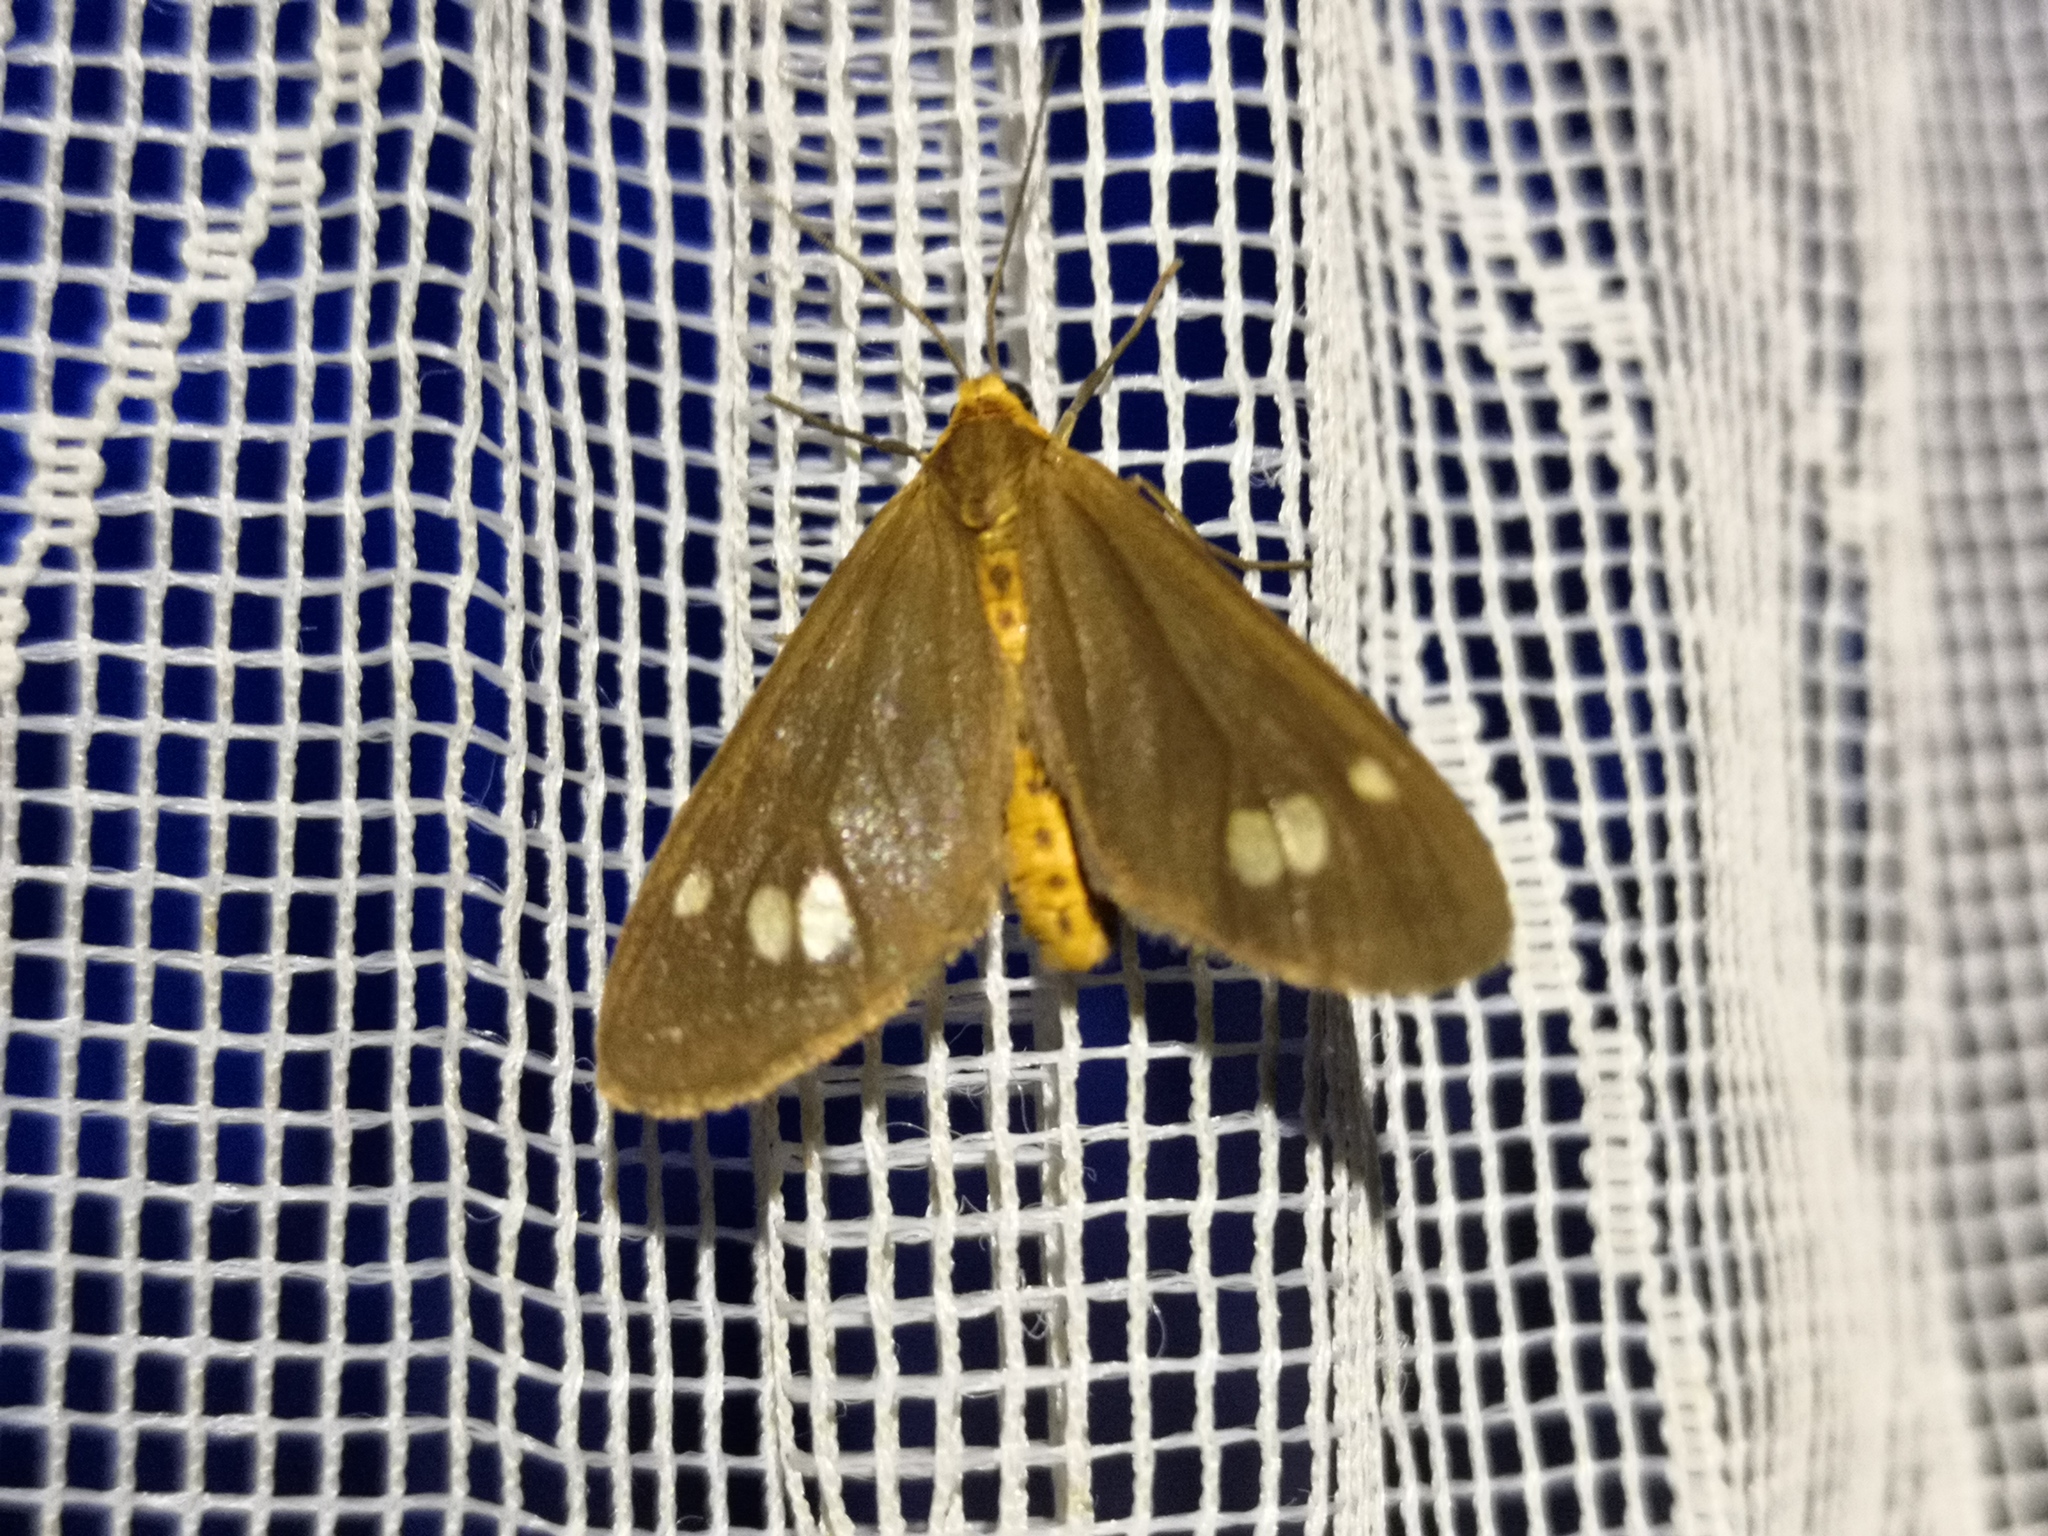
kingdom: Animalia
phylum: Arthropoda
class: Insecta
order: Lepidoptera
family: Erebidae
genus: Dysauxes
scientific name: Dysauxes ancilla
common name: The handmaid
